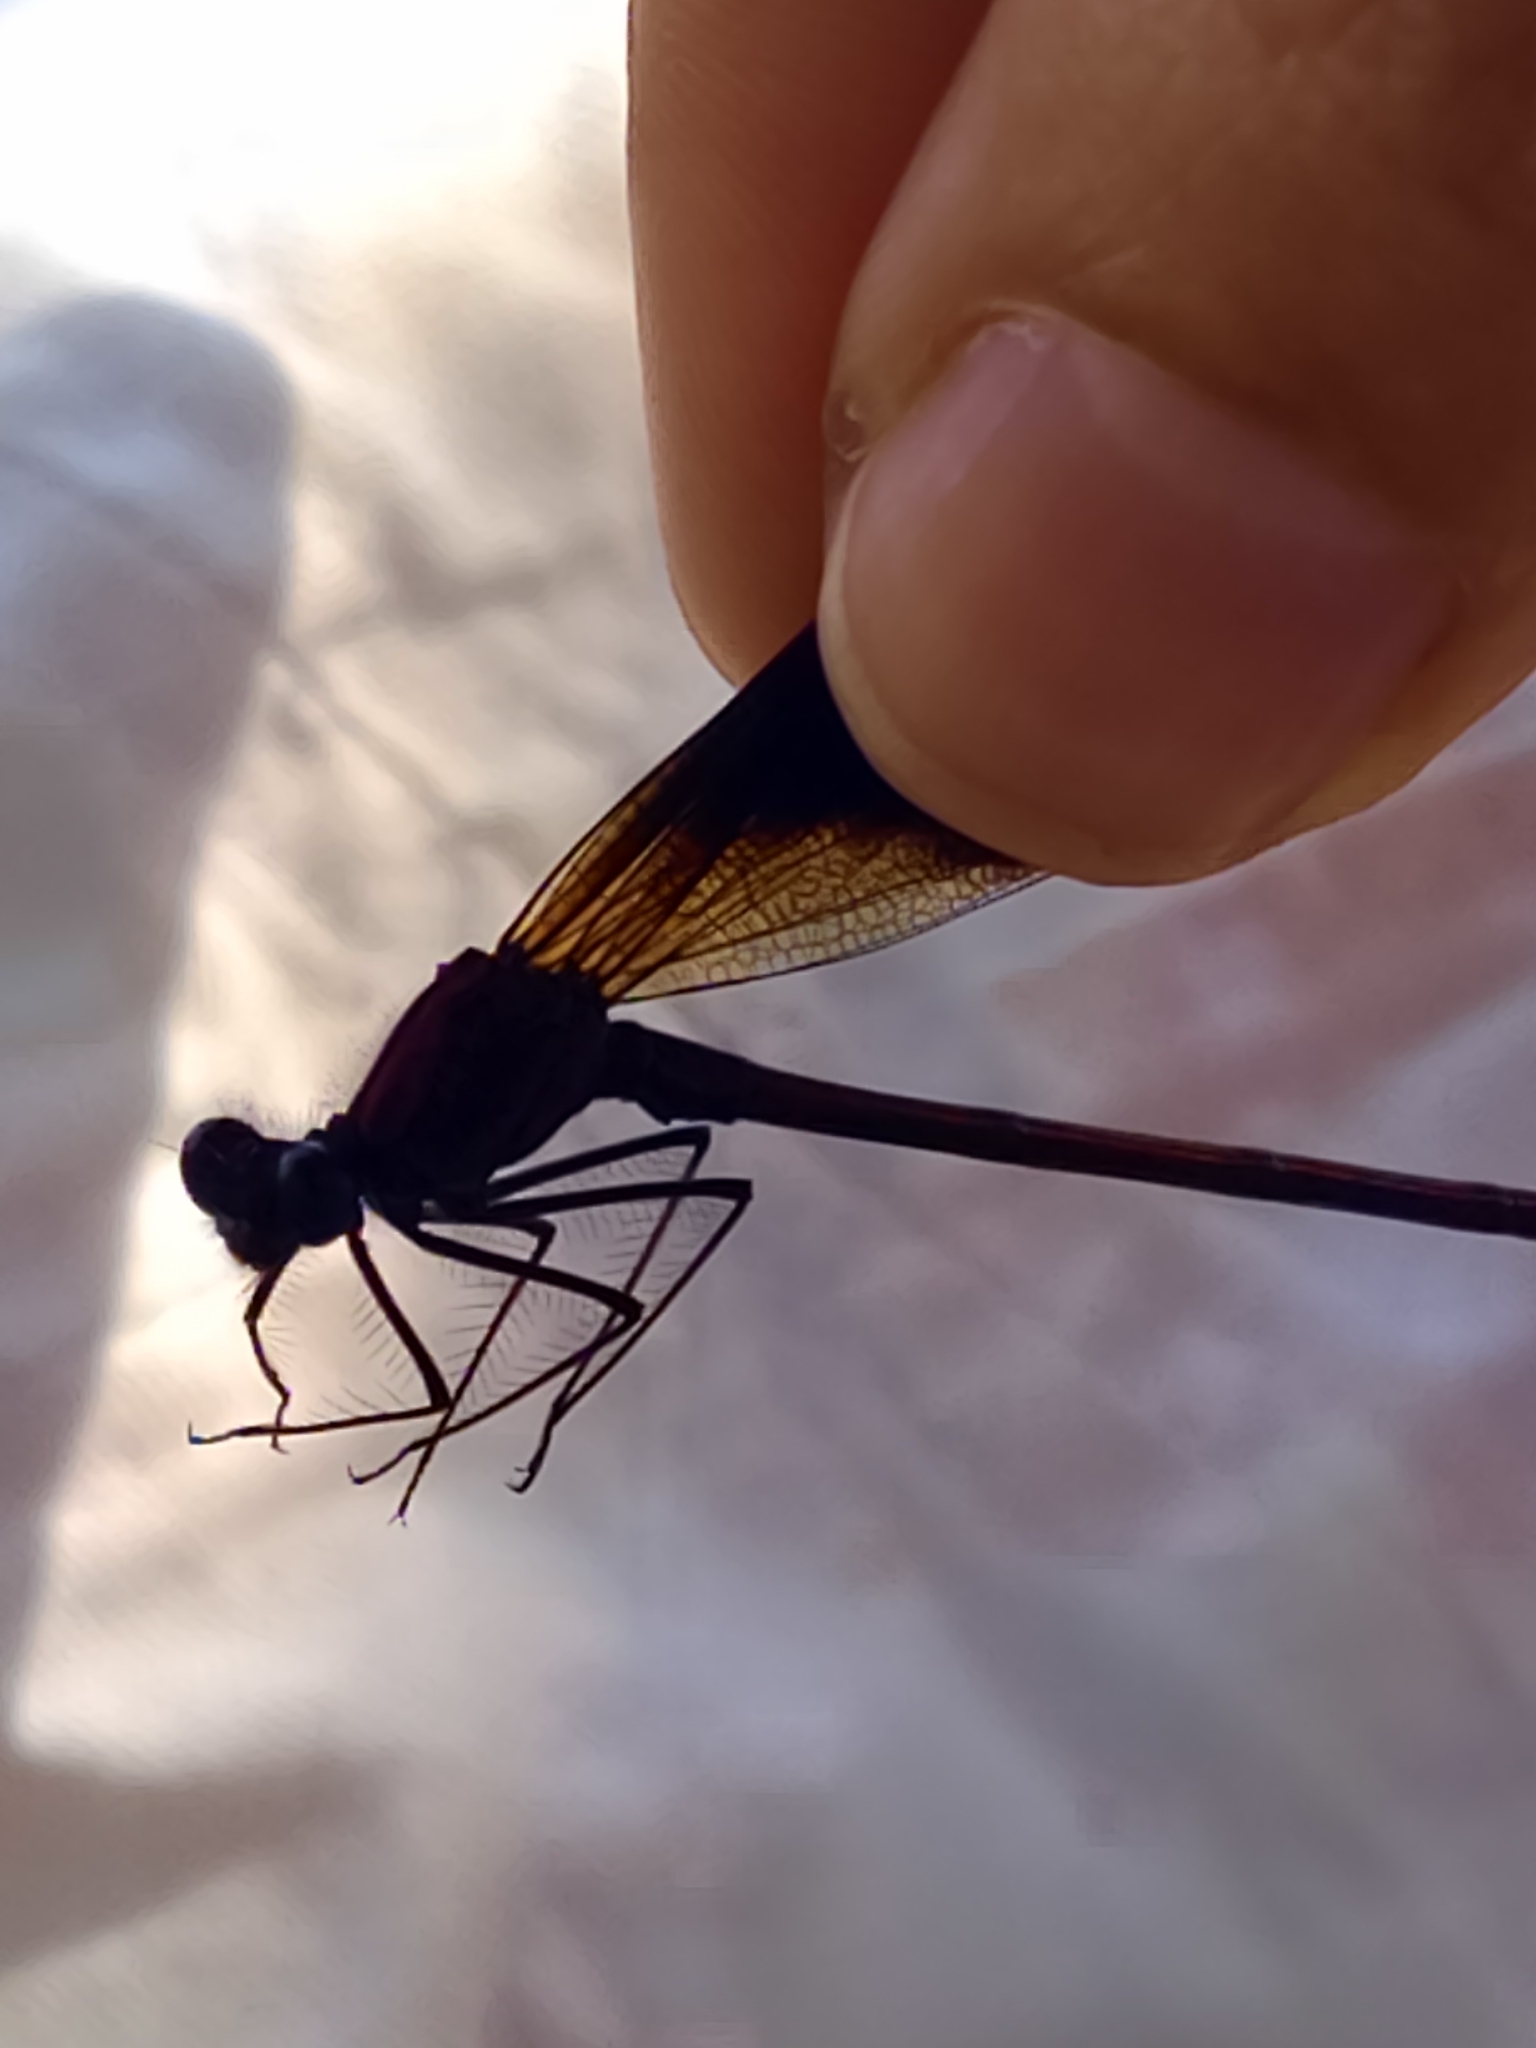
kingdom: Animalia
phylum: Arthropoda
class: Insecta
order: Odonata
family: Calopterygidae
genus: Calopteryx
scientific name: Calopteryx haemorrhoidalis
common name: Copper demoiselle
